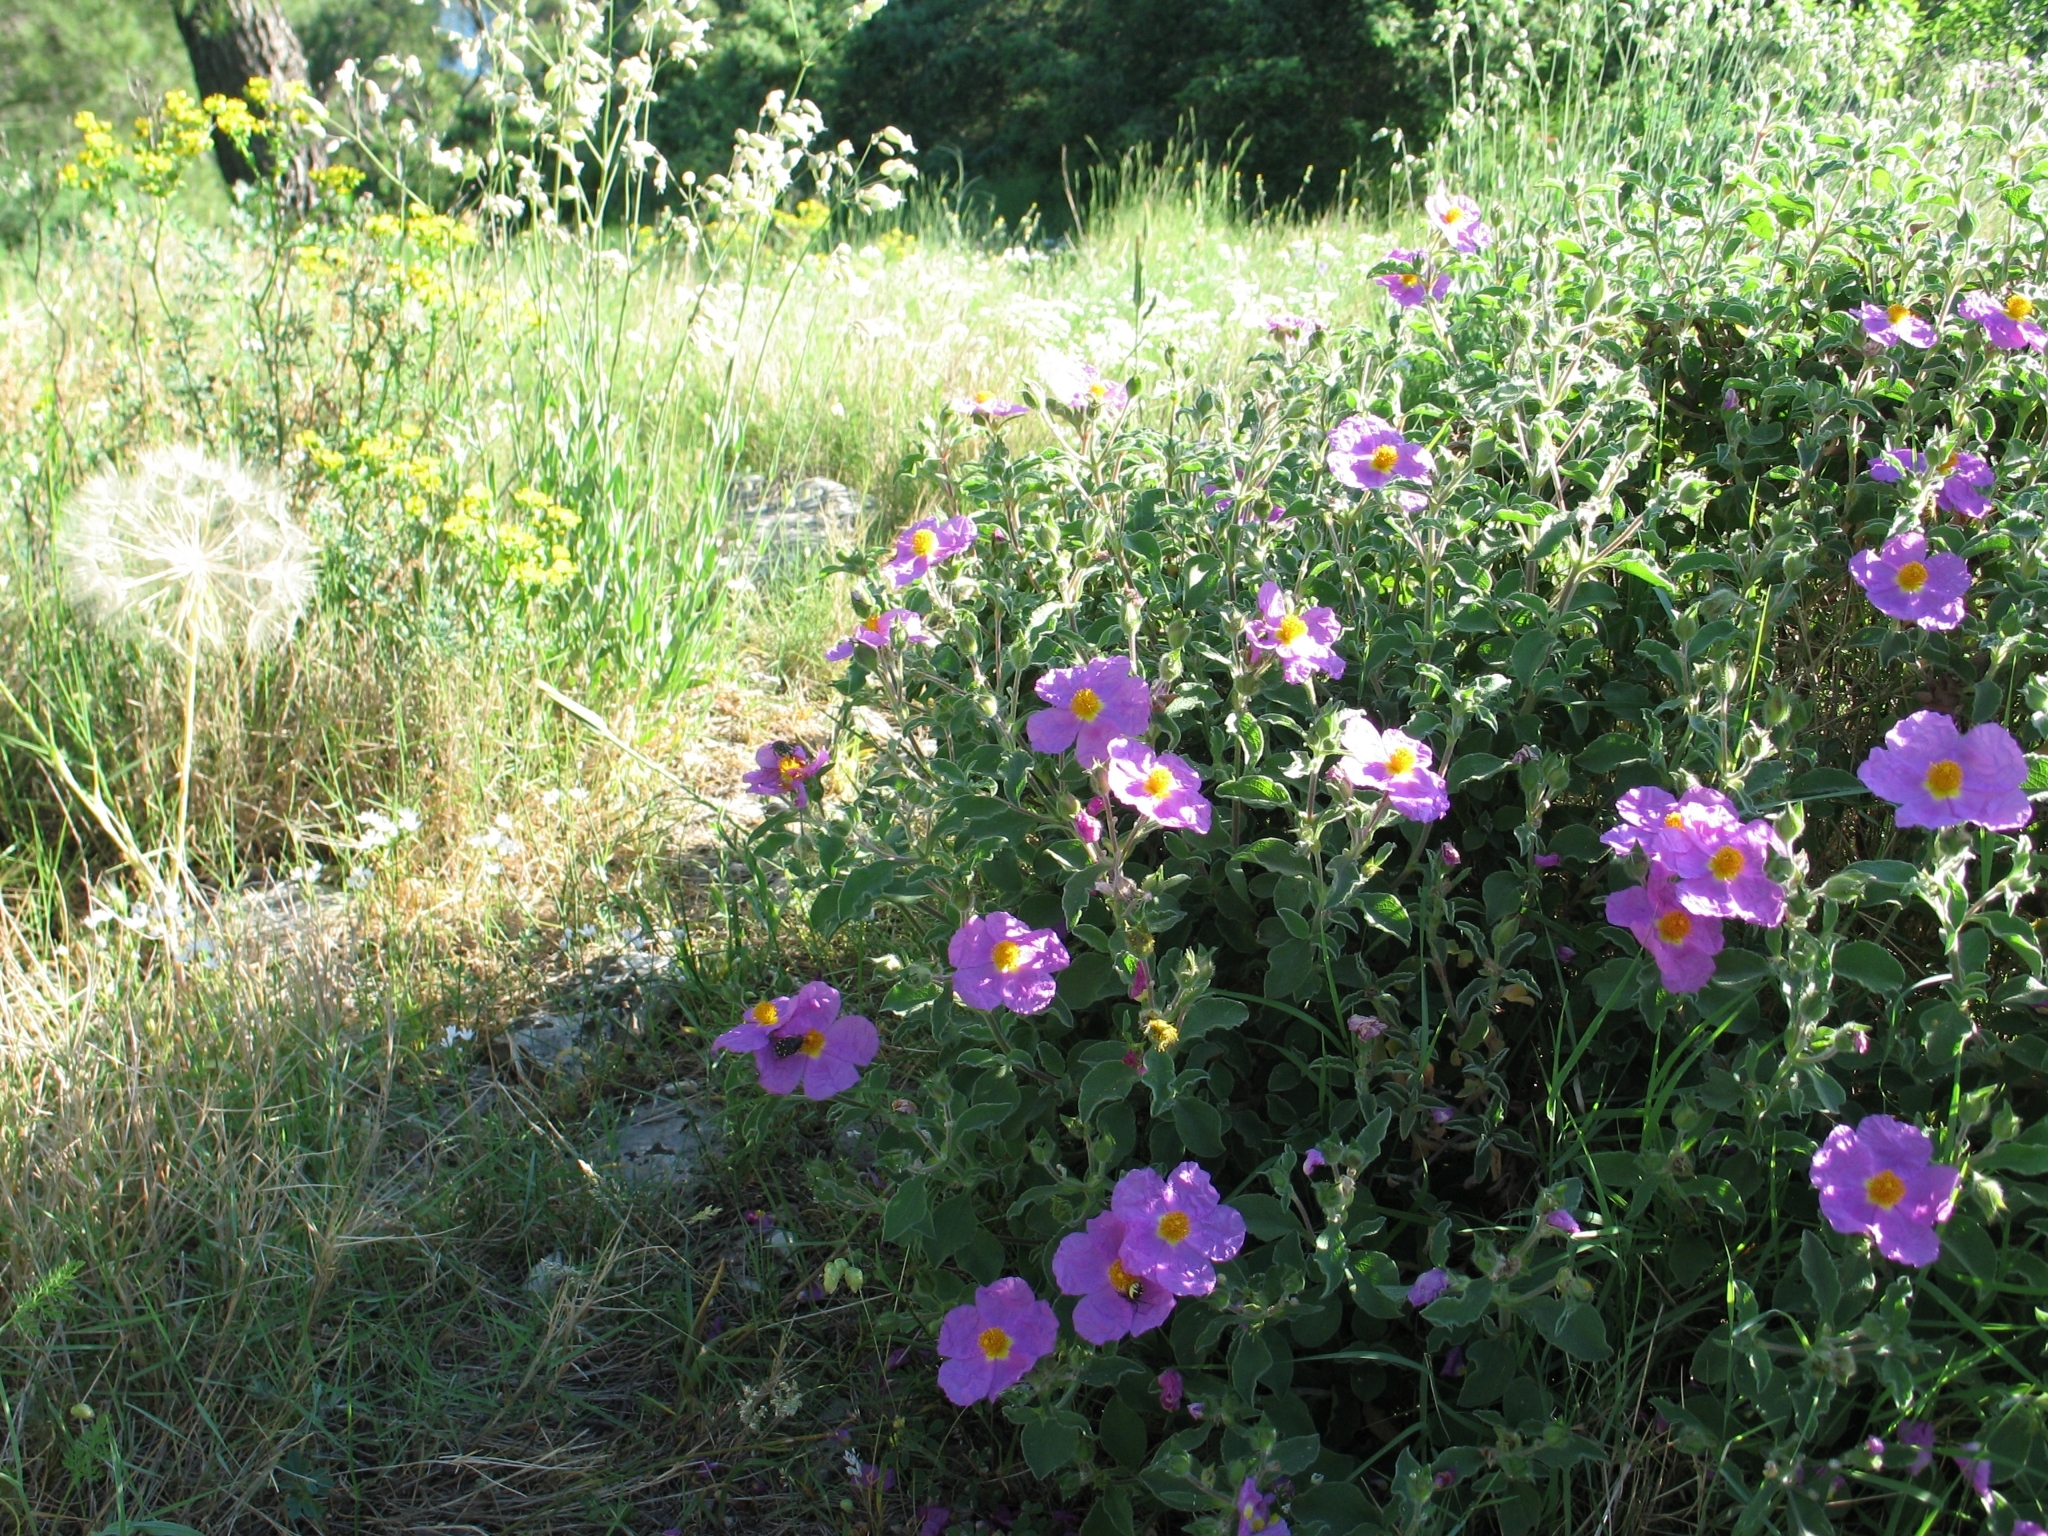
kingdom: Plantae
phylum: Tracheophyta
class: Magnoliopsida
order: Malvales
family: Cistaceae
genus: Cistus
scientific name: Cistus creticus
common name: Cretan rockrose
